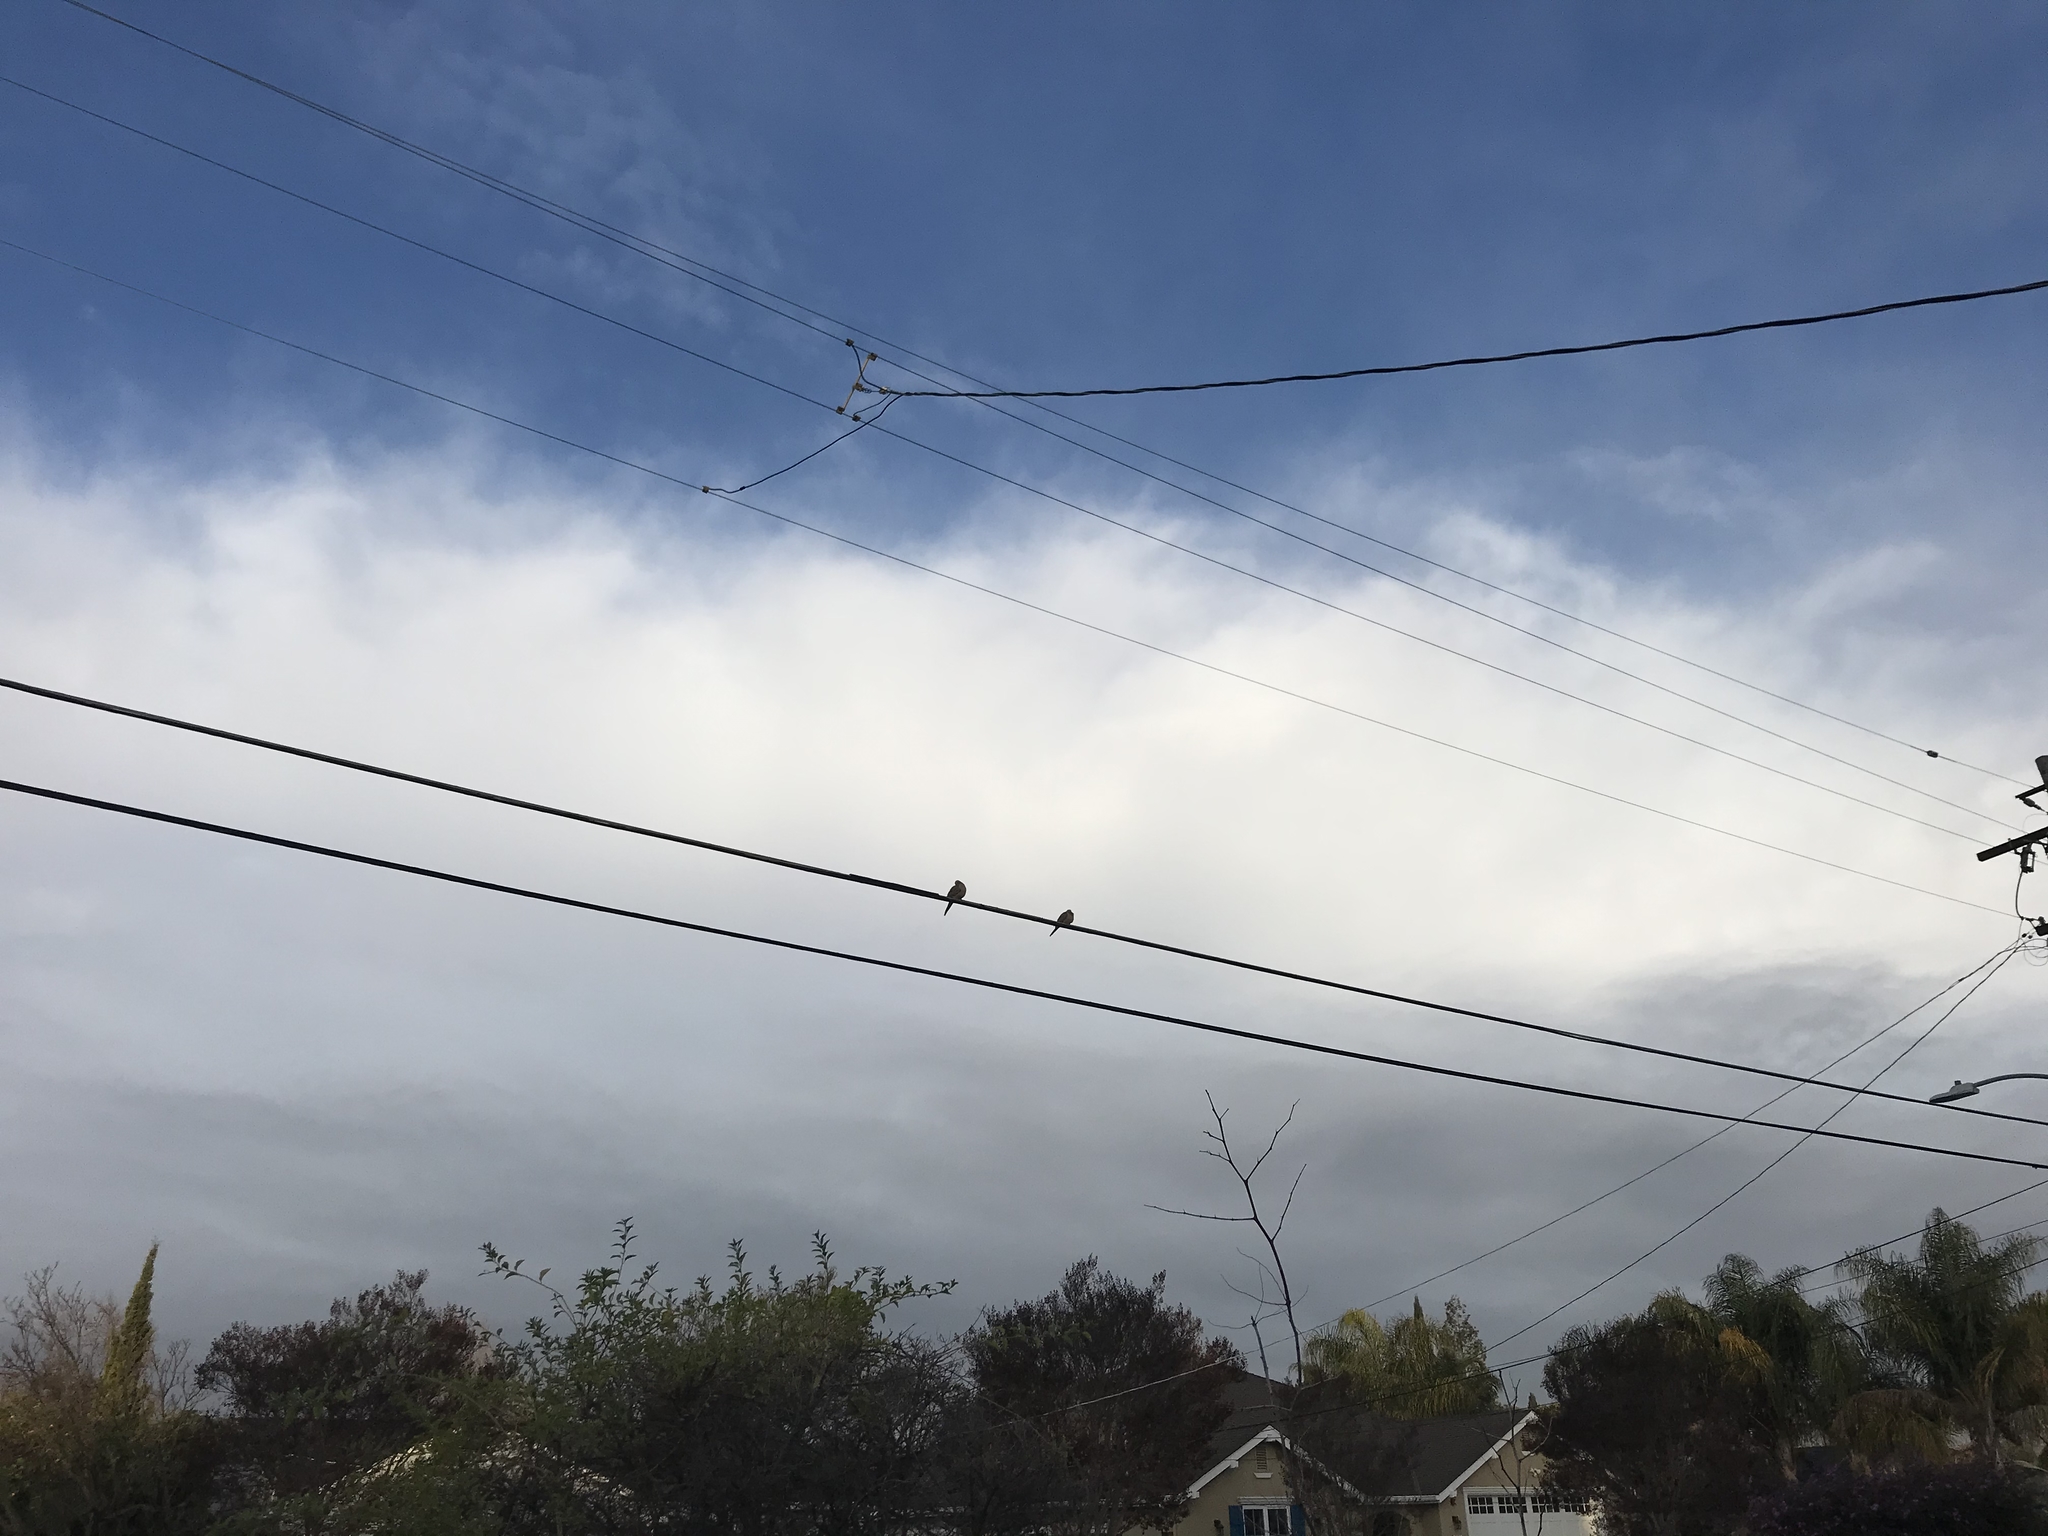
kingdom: Animalia
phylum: Chordata
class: Aves
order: Columbiformes
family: Columbidae
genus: Zenaida
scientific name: Zenaida macroura
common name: Mourning dove
